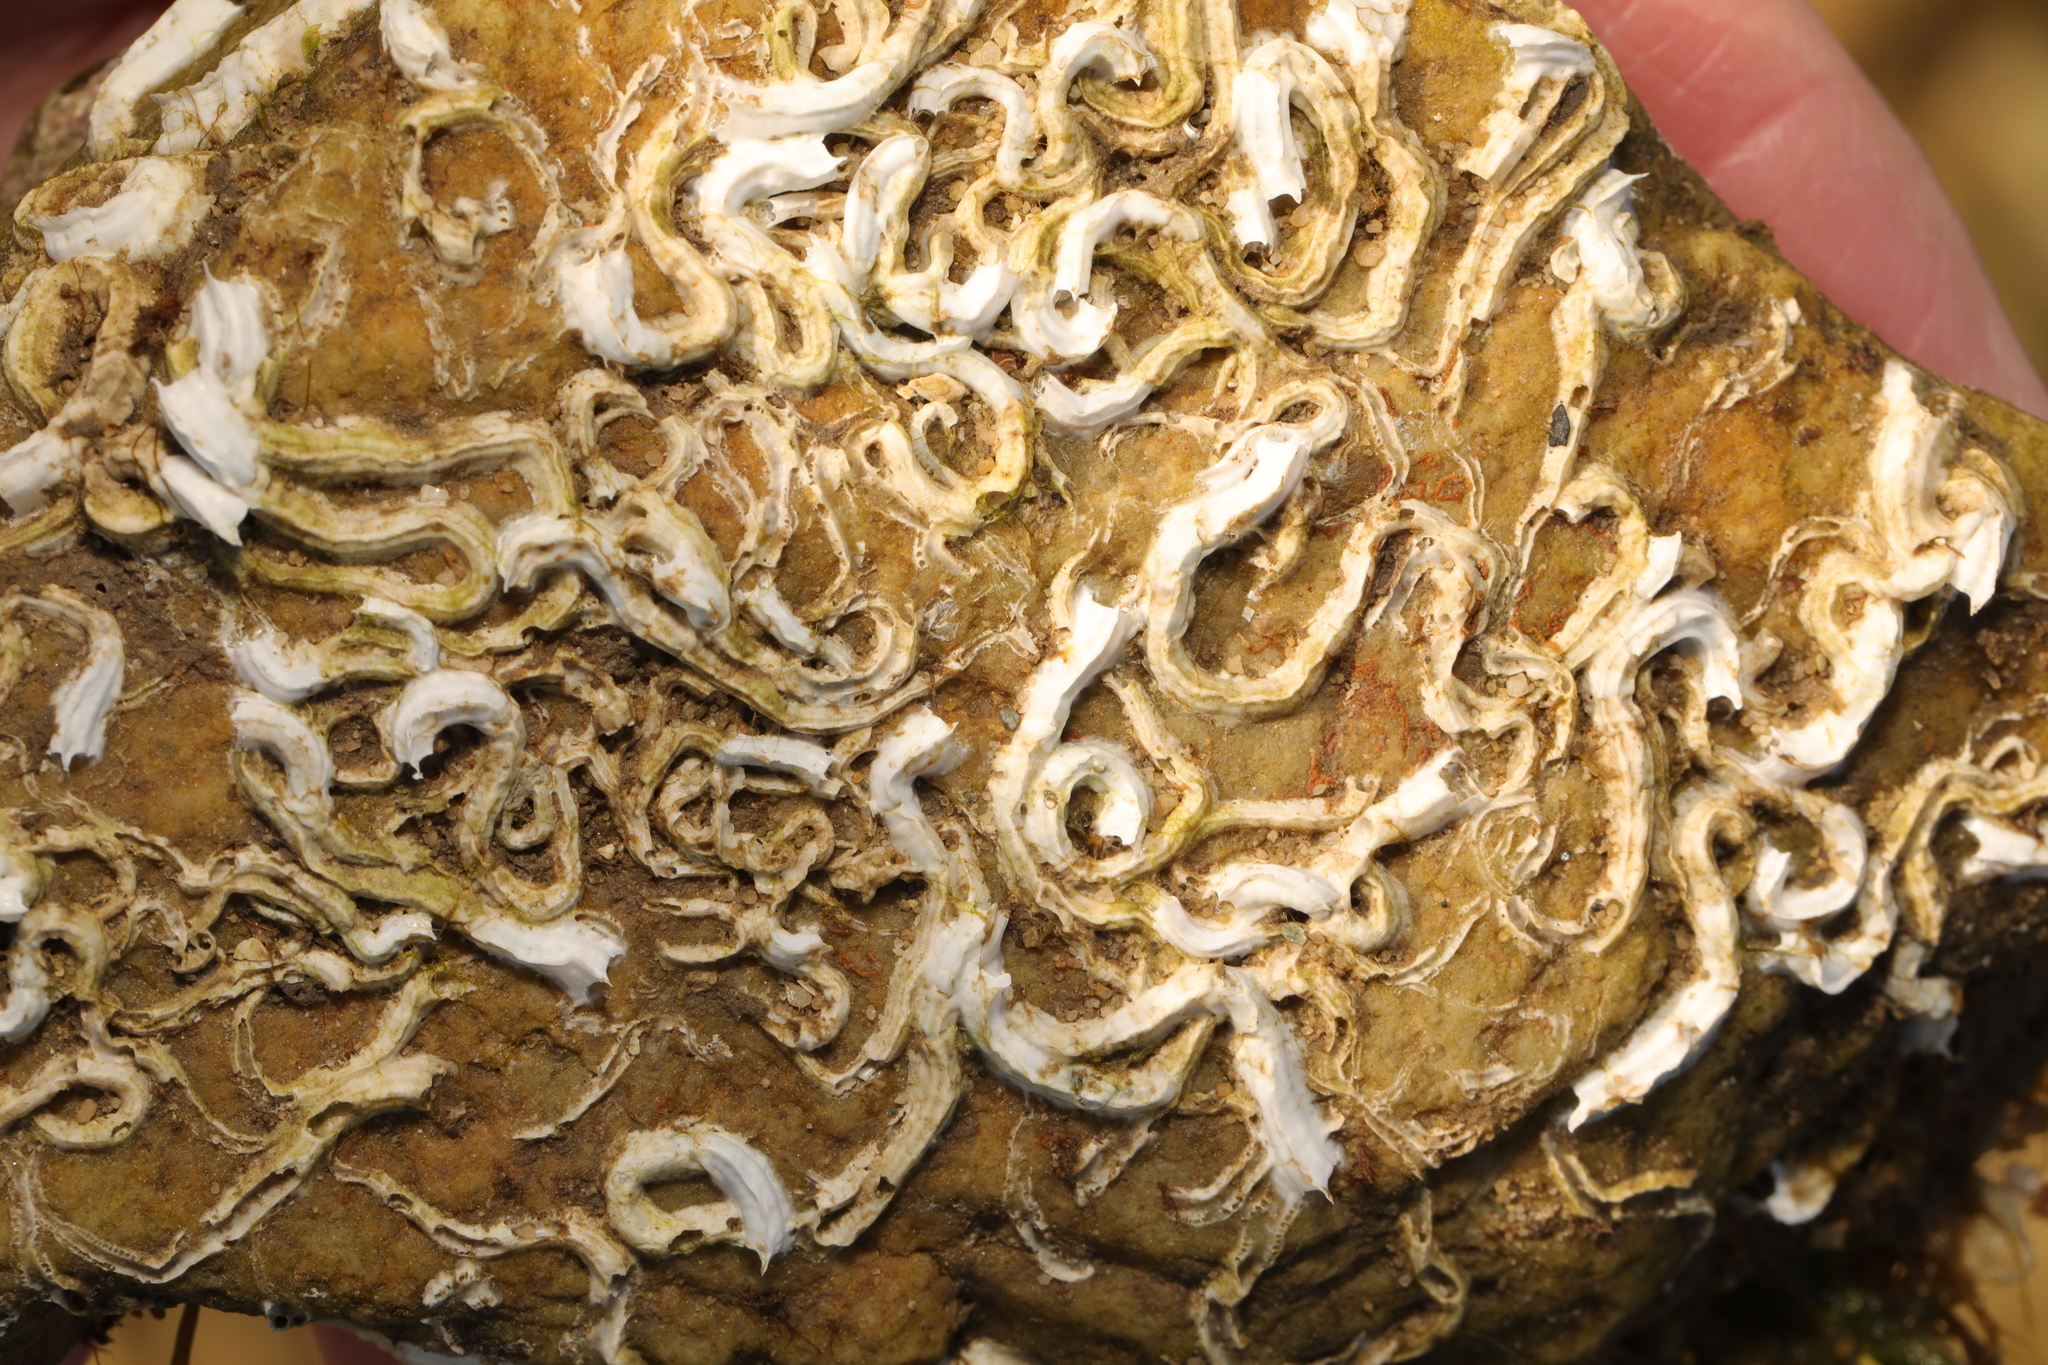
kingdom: Animalia
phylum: Annelida
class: Polychaeta
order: Sabellida
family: Serpulidae
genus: Spirobranchus
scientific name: Spirobranchus lamarcki
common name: Keelworm
